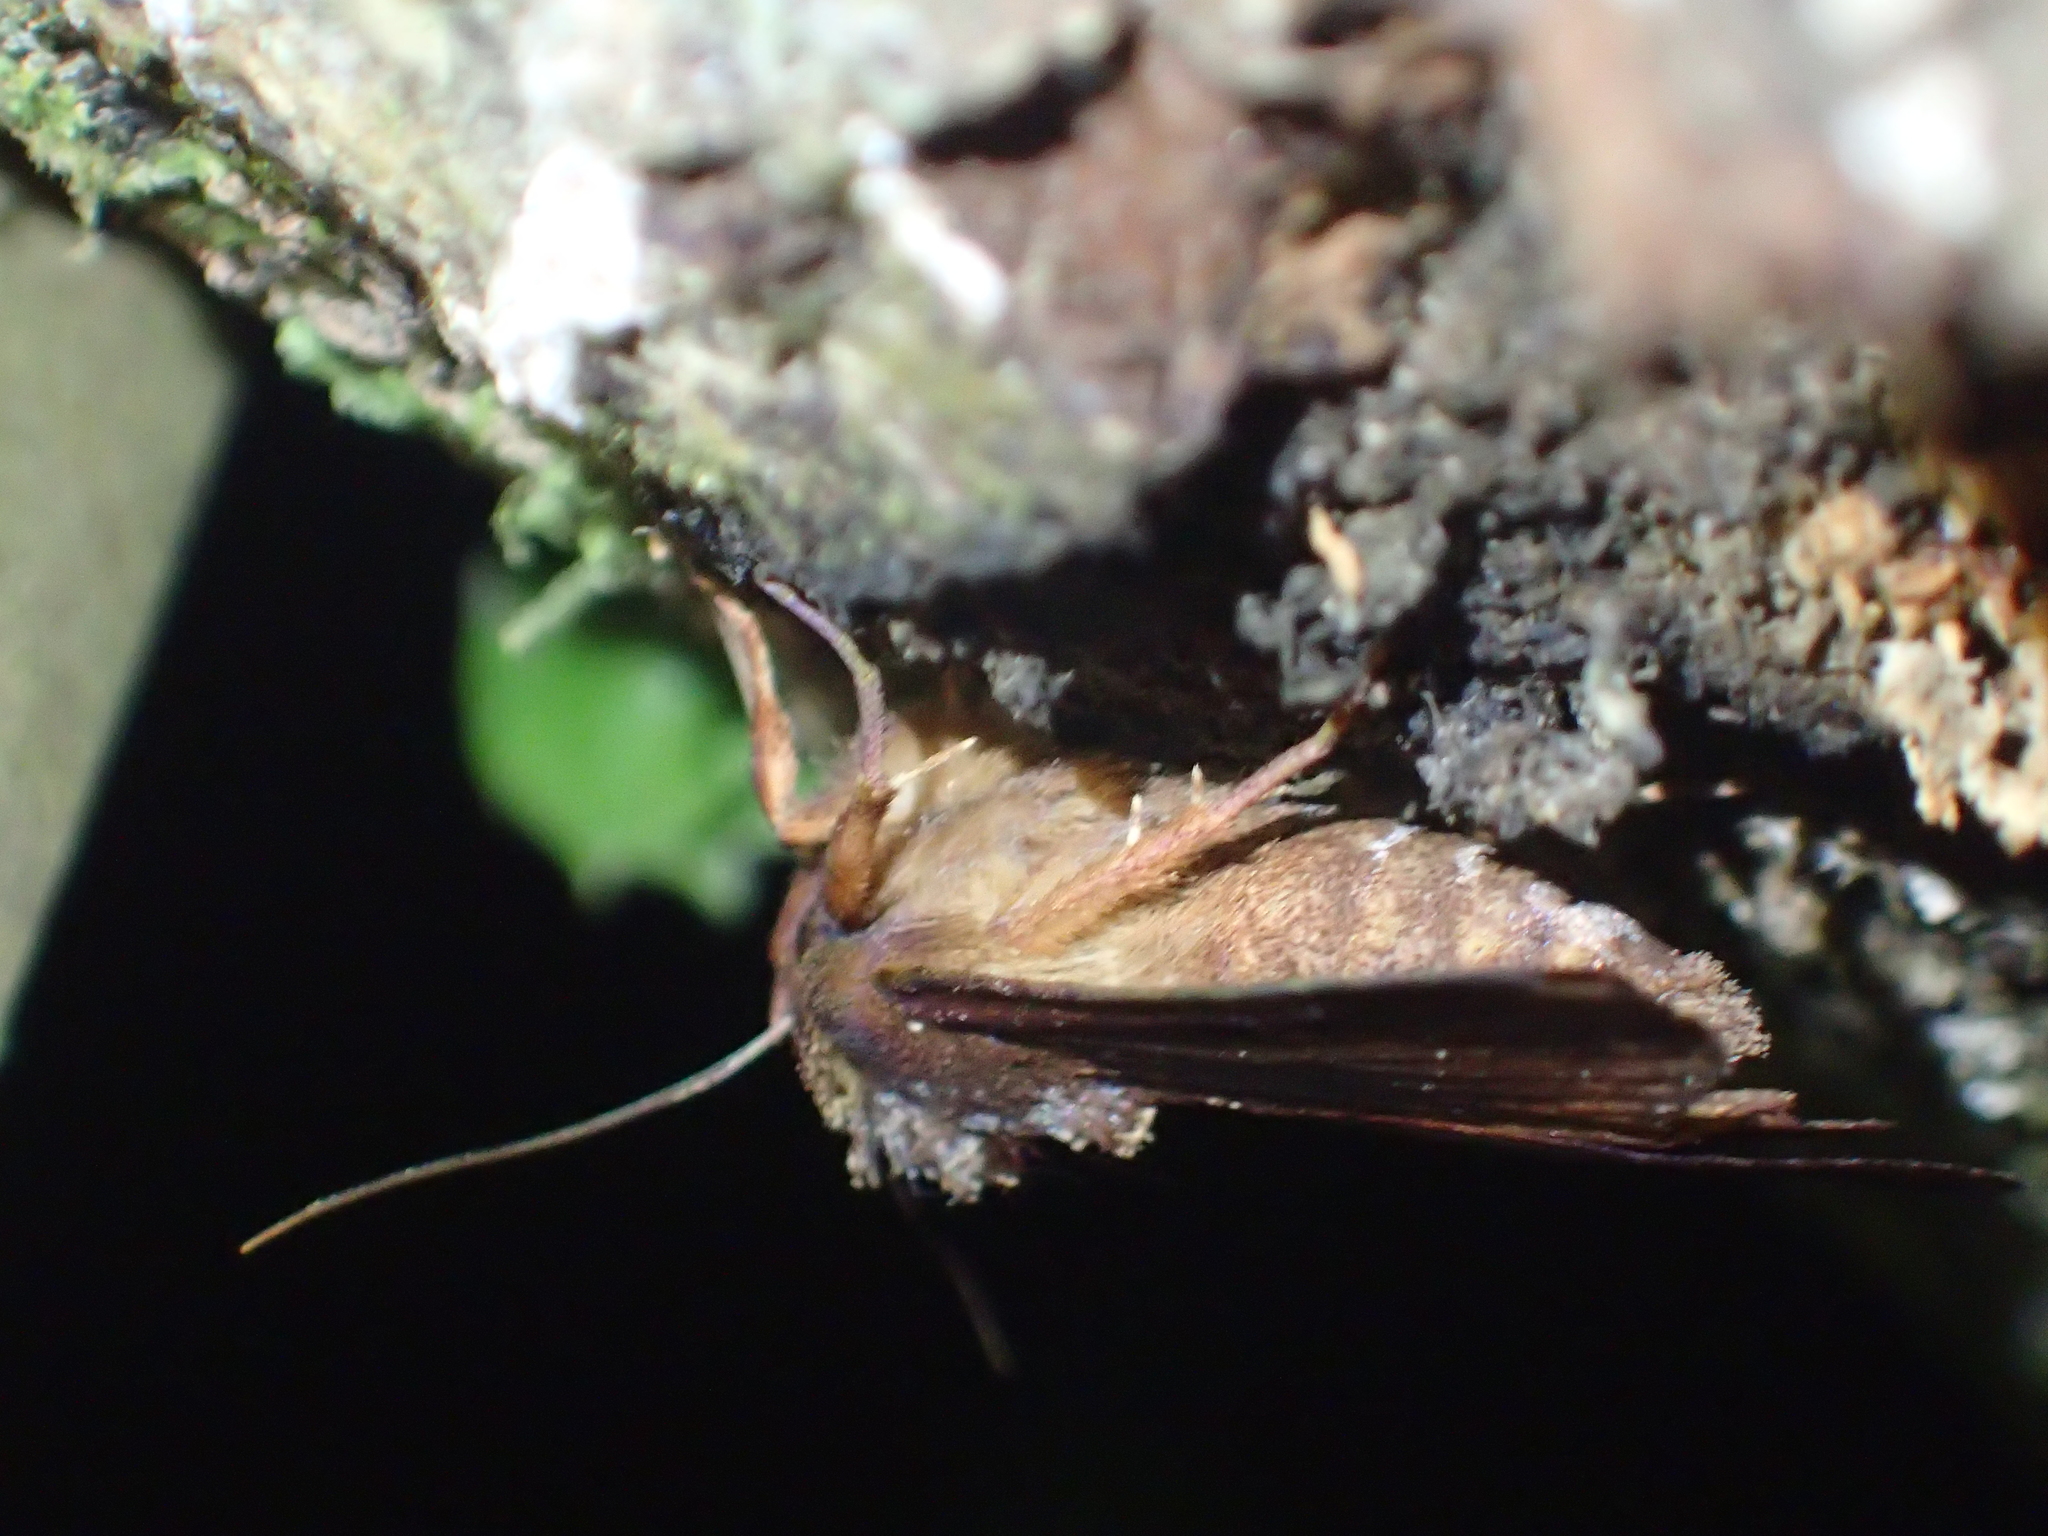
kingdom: Animalia
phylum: Arthropoda
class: Insecta
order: Lepidoptera
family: Noctuidae
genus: Austramathes
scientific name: Austramathes purpurea
